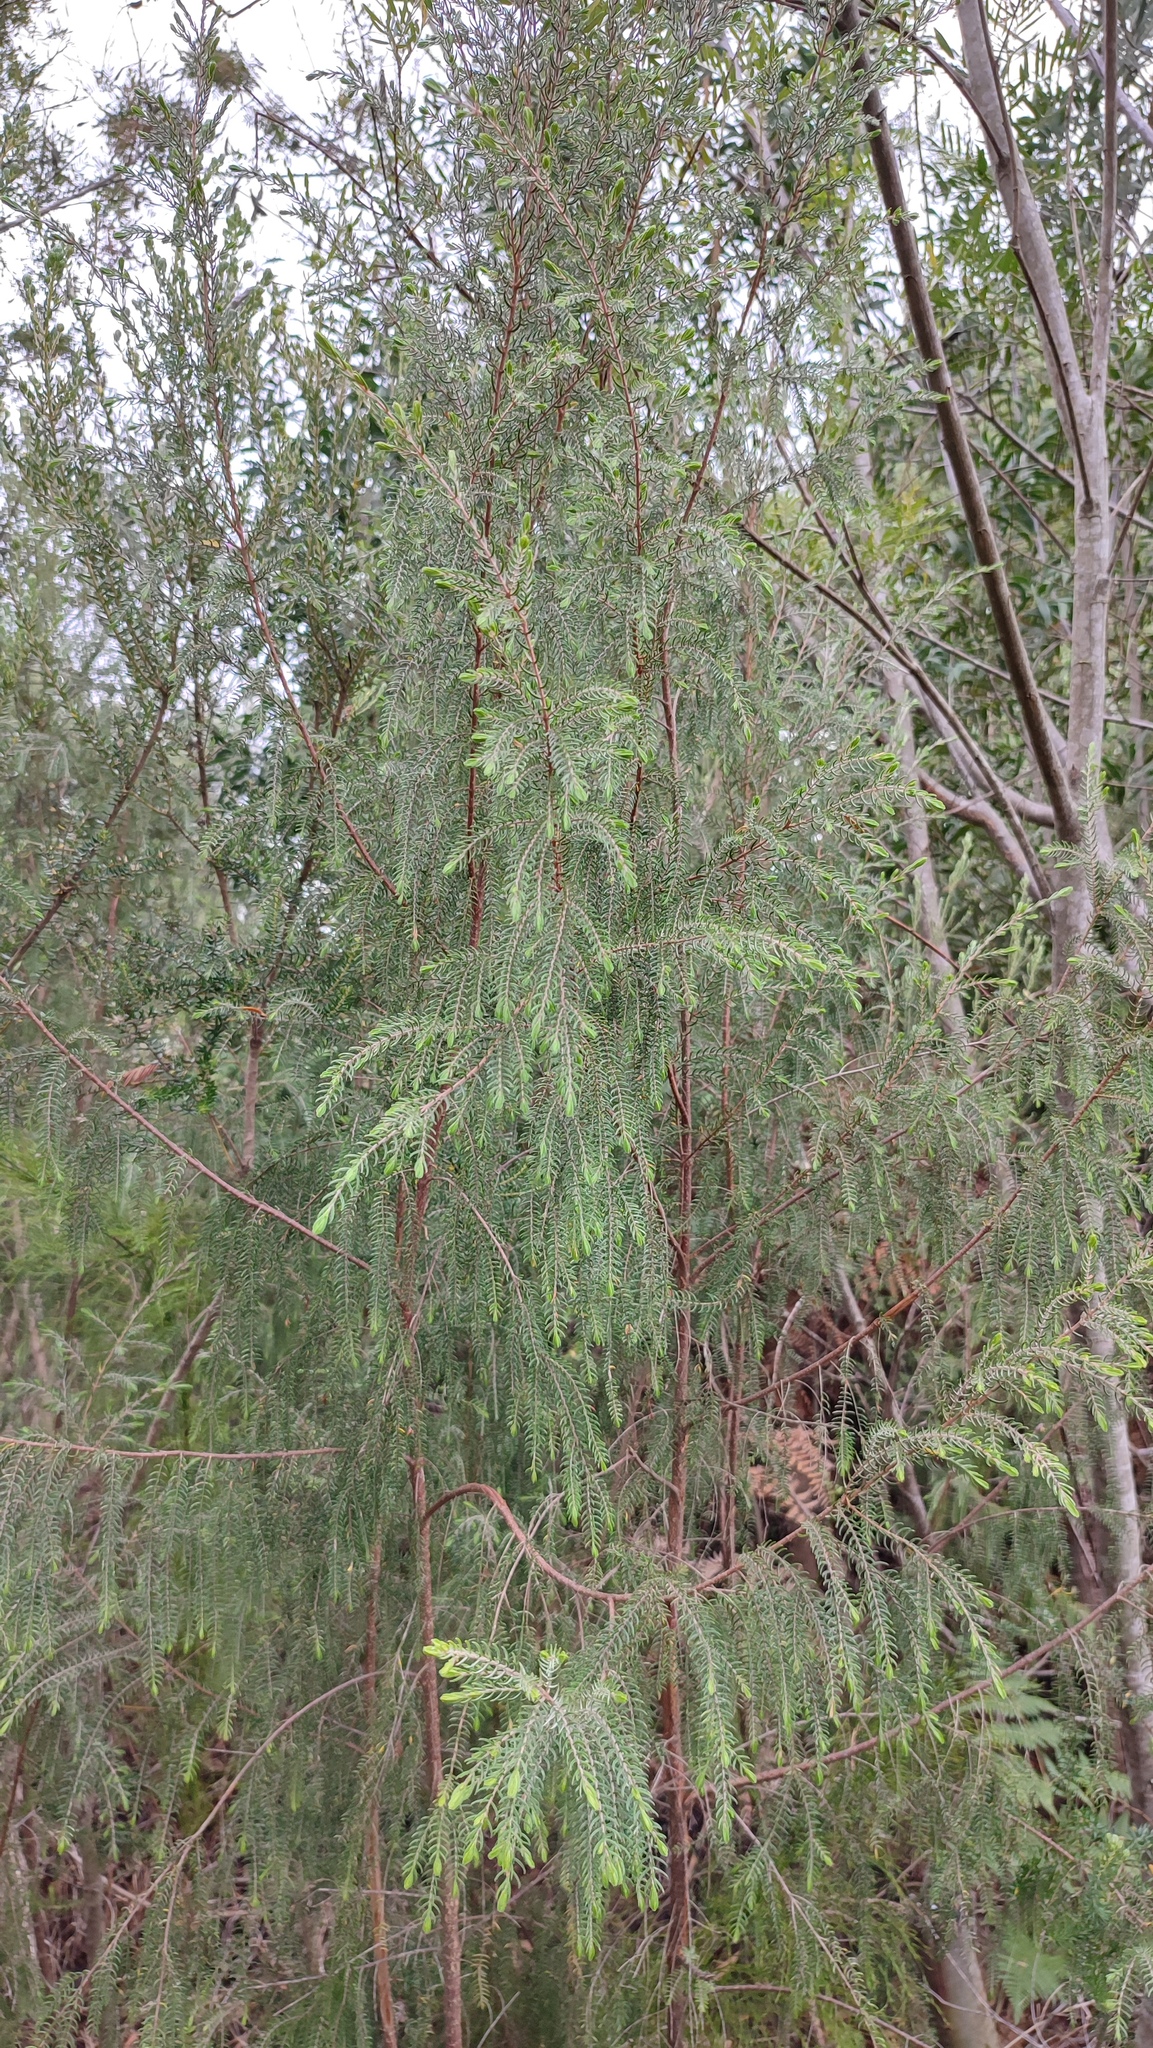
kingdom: Plantae
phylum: Tracheophyta
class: Magnoliopsida
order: Malvales
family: Thymelaeaceae
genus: Passerina
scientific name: Passerina falcifolia
